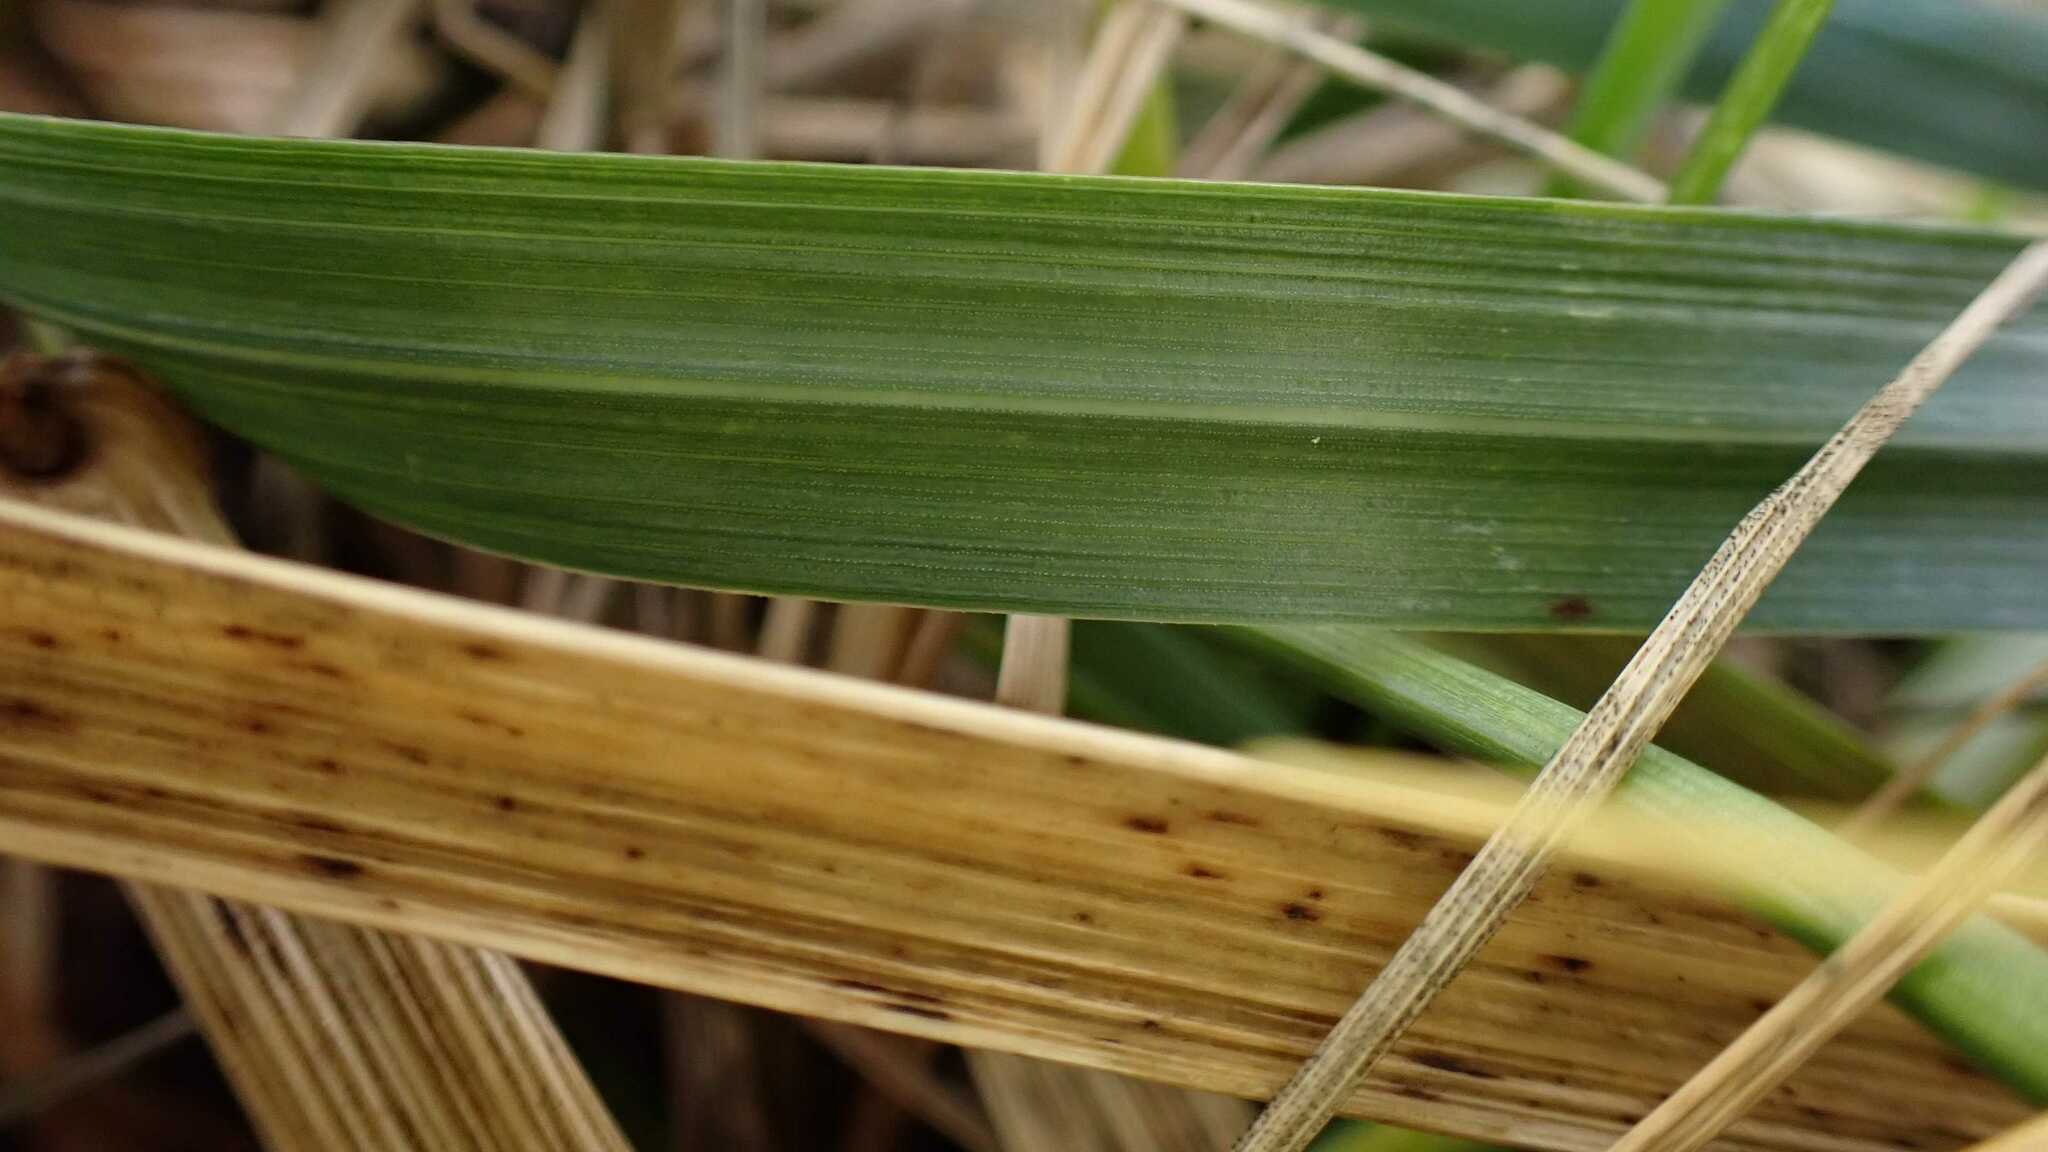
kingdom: Plantae
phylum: Tracheophyta
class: Liliopsida
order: Poales
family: Poaceae
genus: Lolium
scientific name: Lolium arundinaceum
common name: Reed fescue
